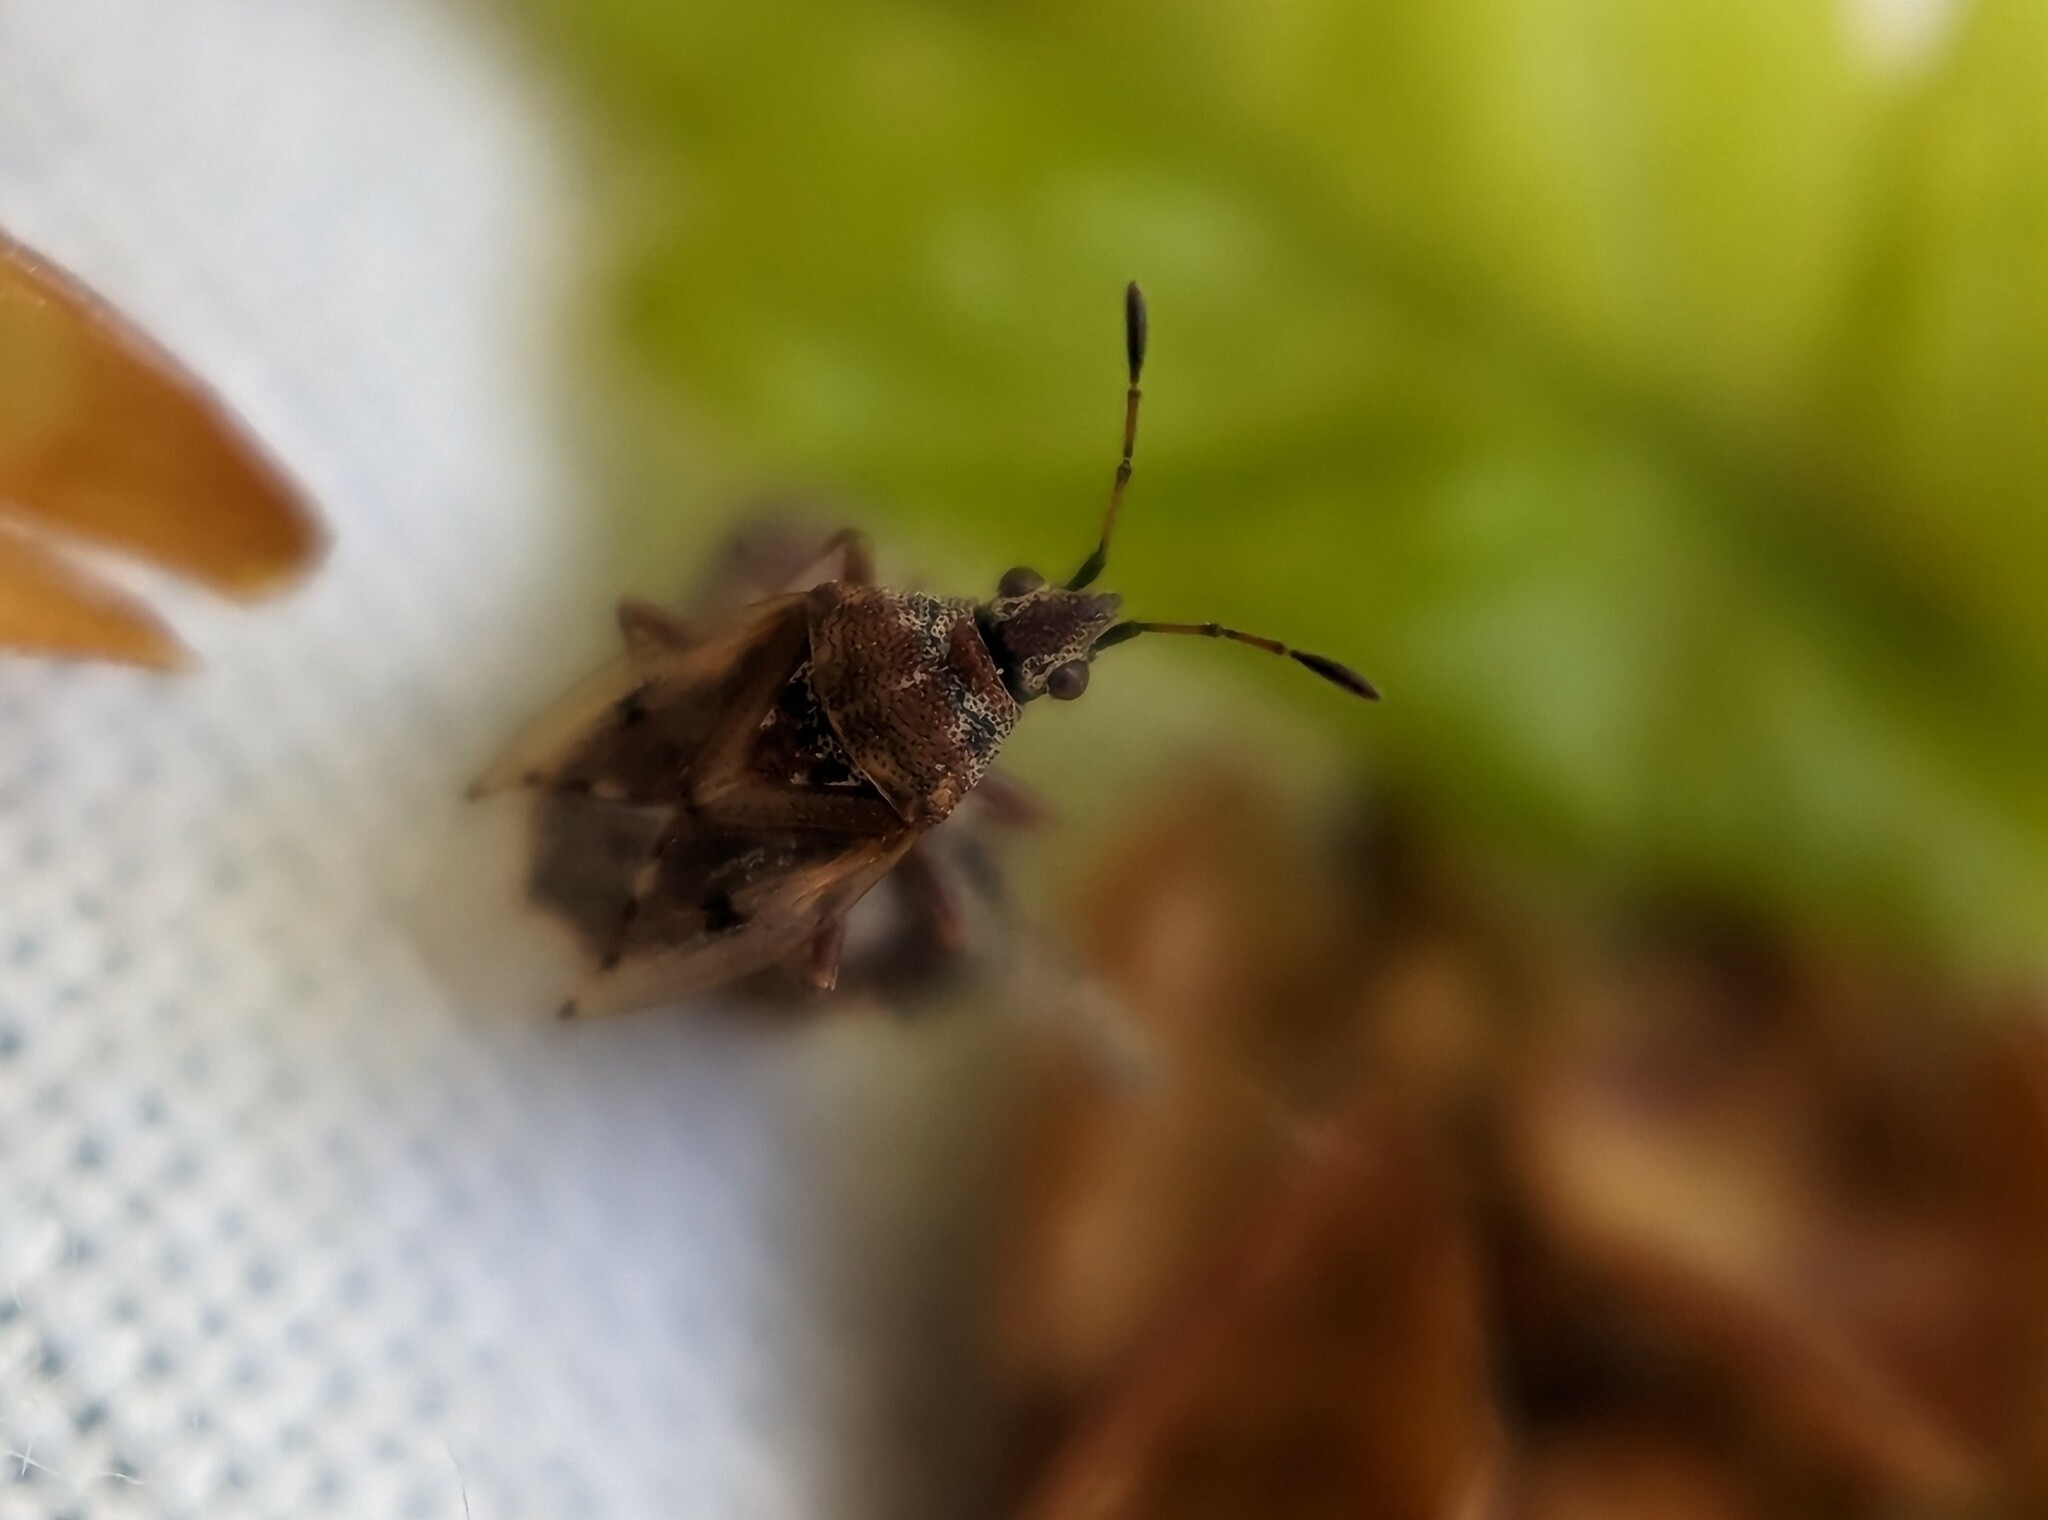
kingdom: Animalia
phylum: Arthropoda
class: Insecta
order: Hemiptera
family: Lygaeidae
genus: Kleidocerys
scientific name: Kleidocerys resedae
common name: Birch catkin bug
